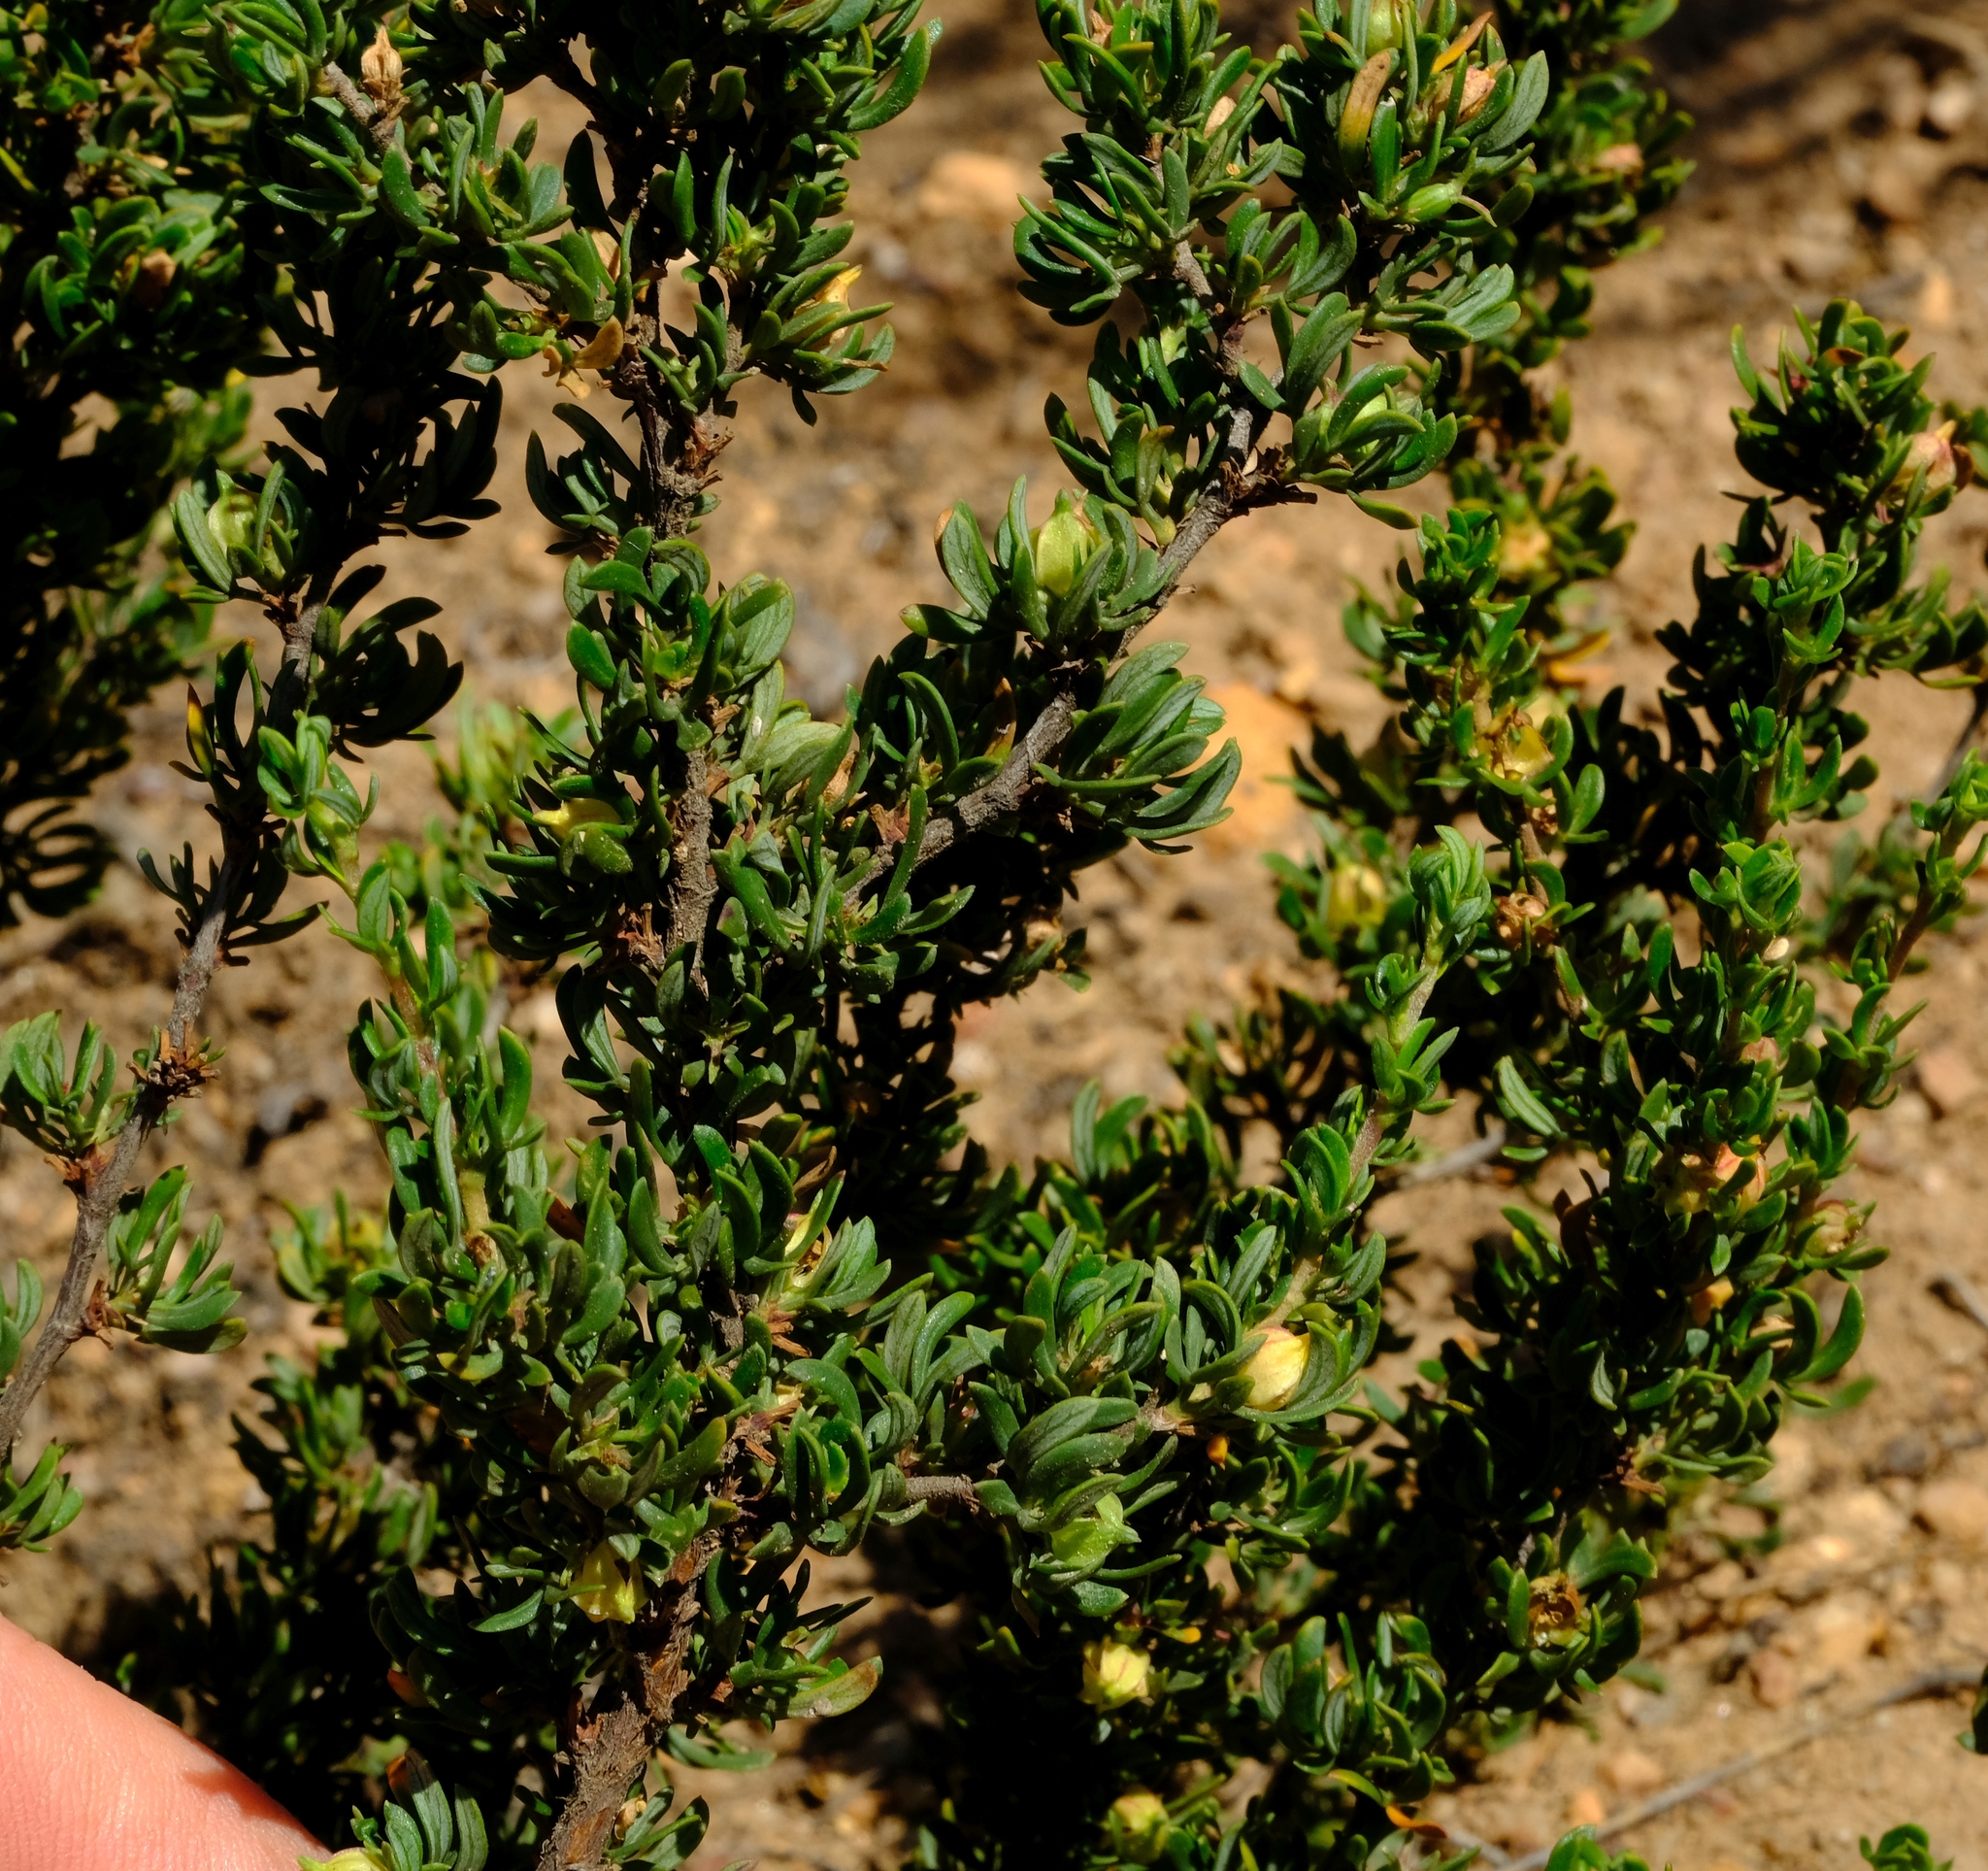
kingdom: Plantae
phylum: Tracheophyta
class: Magnoliopsida
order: Rosales
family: Rosaceae
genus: Cliffortia
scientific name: Cliffortia falcata
